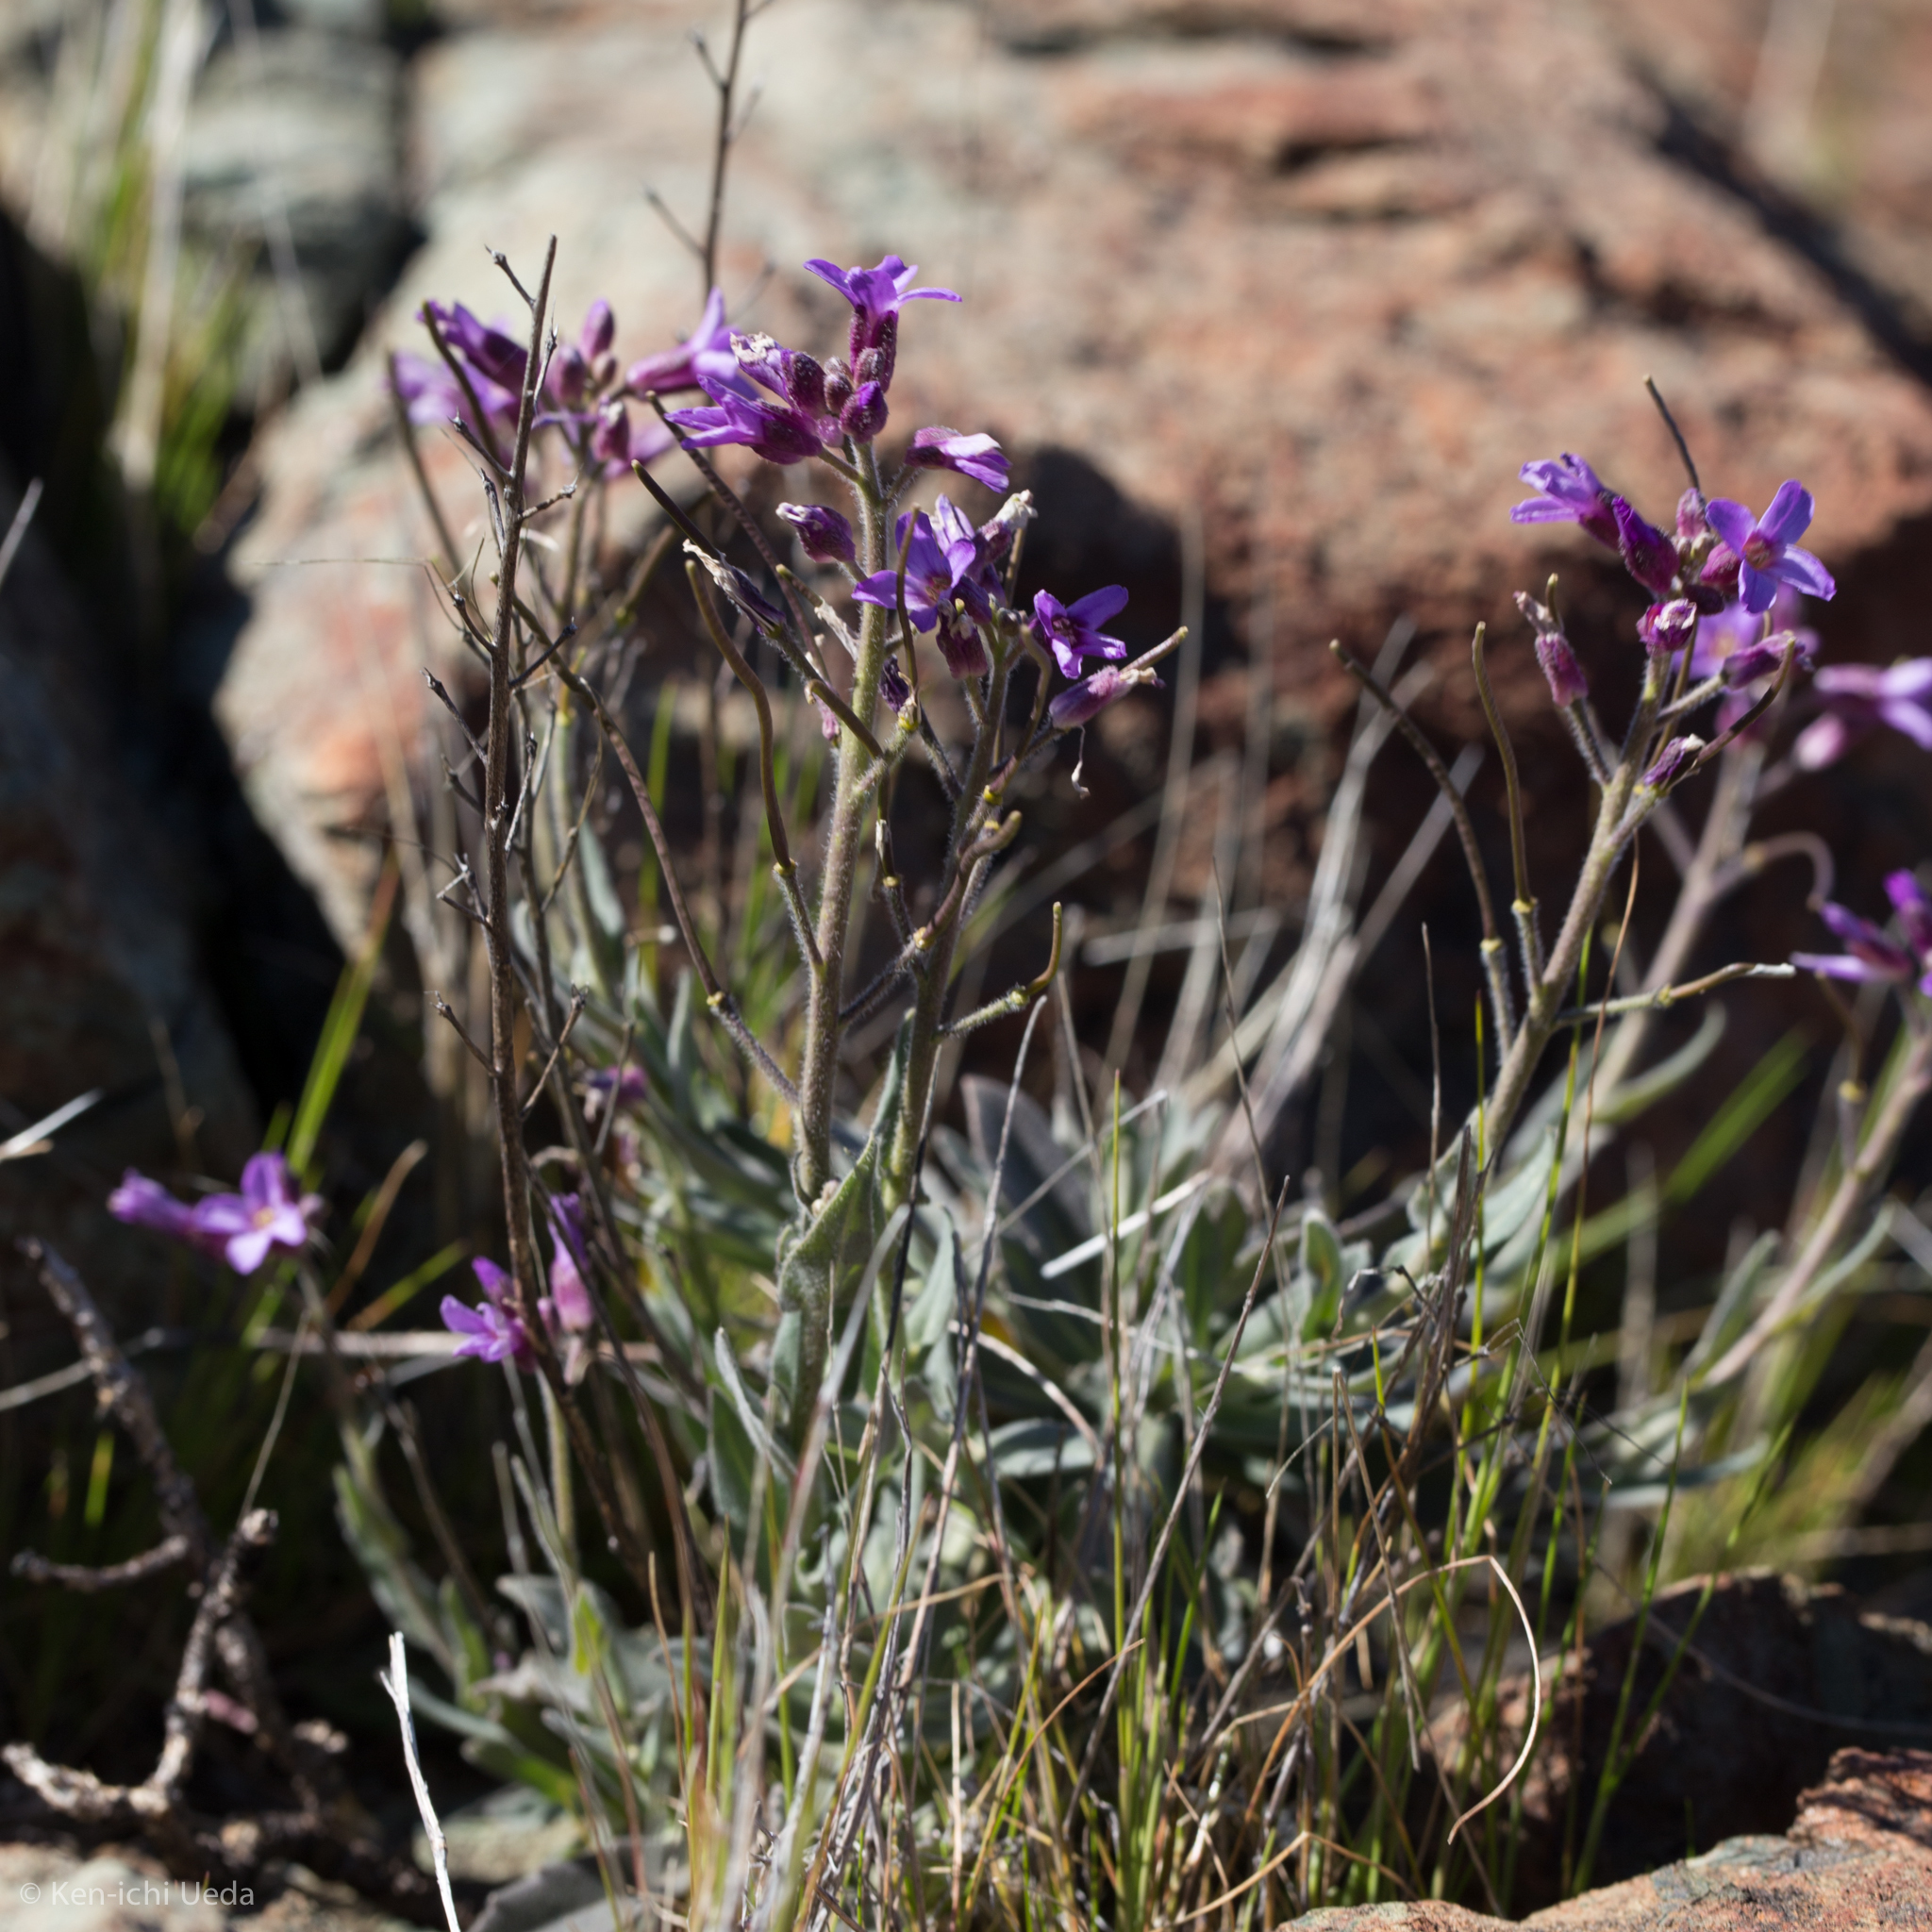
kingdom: Plantae
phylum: Tracheophyta
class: Magnoliopsida
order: Brassicales
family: Brassicaceae
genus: Boechera
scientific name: Boechera breweri
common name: Brewer's rockcress
